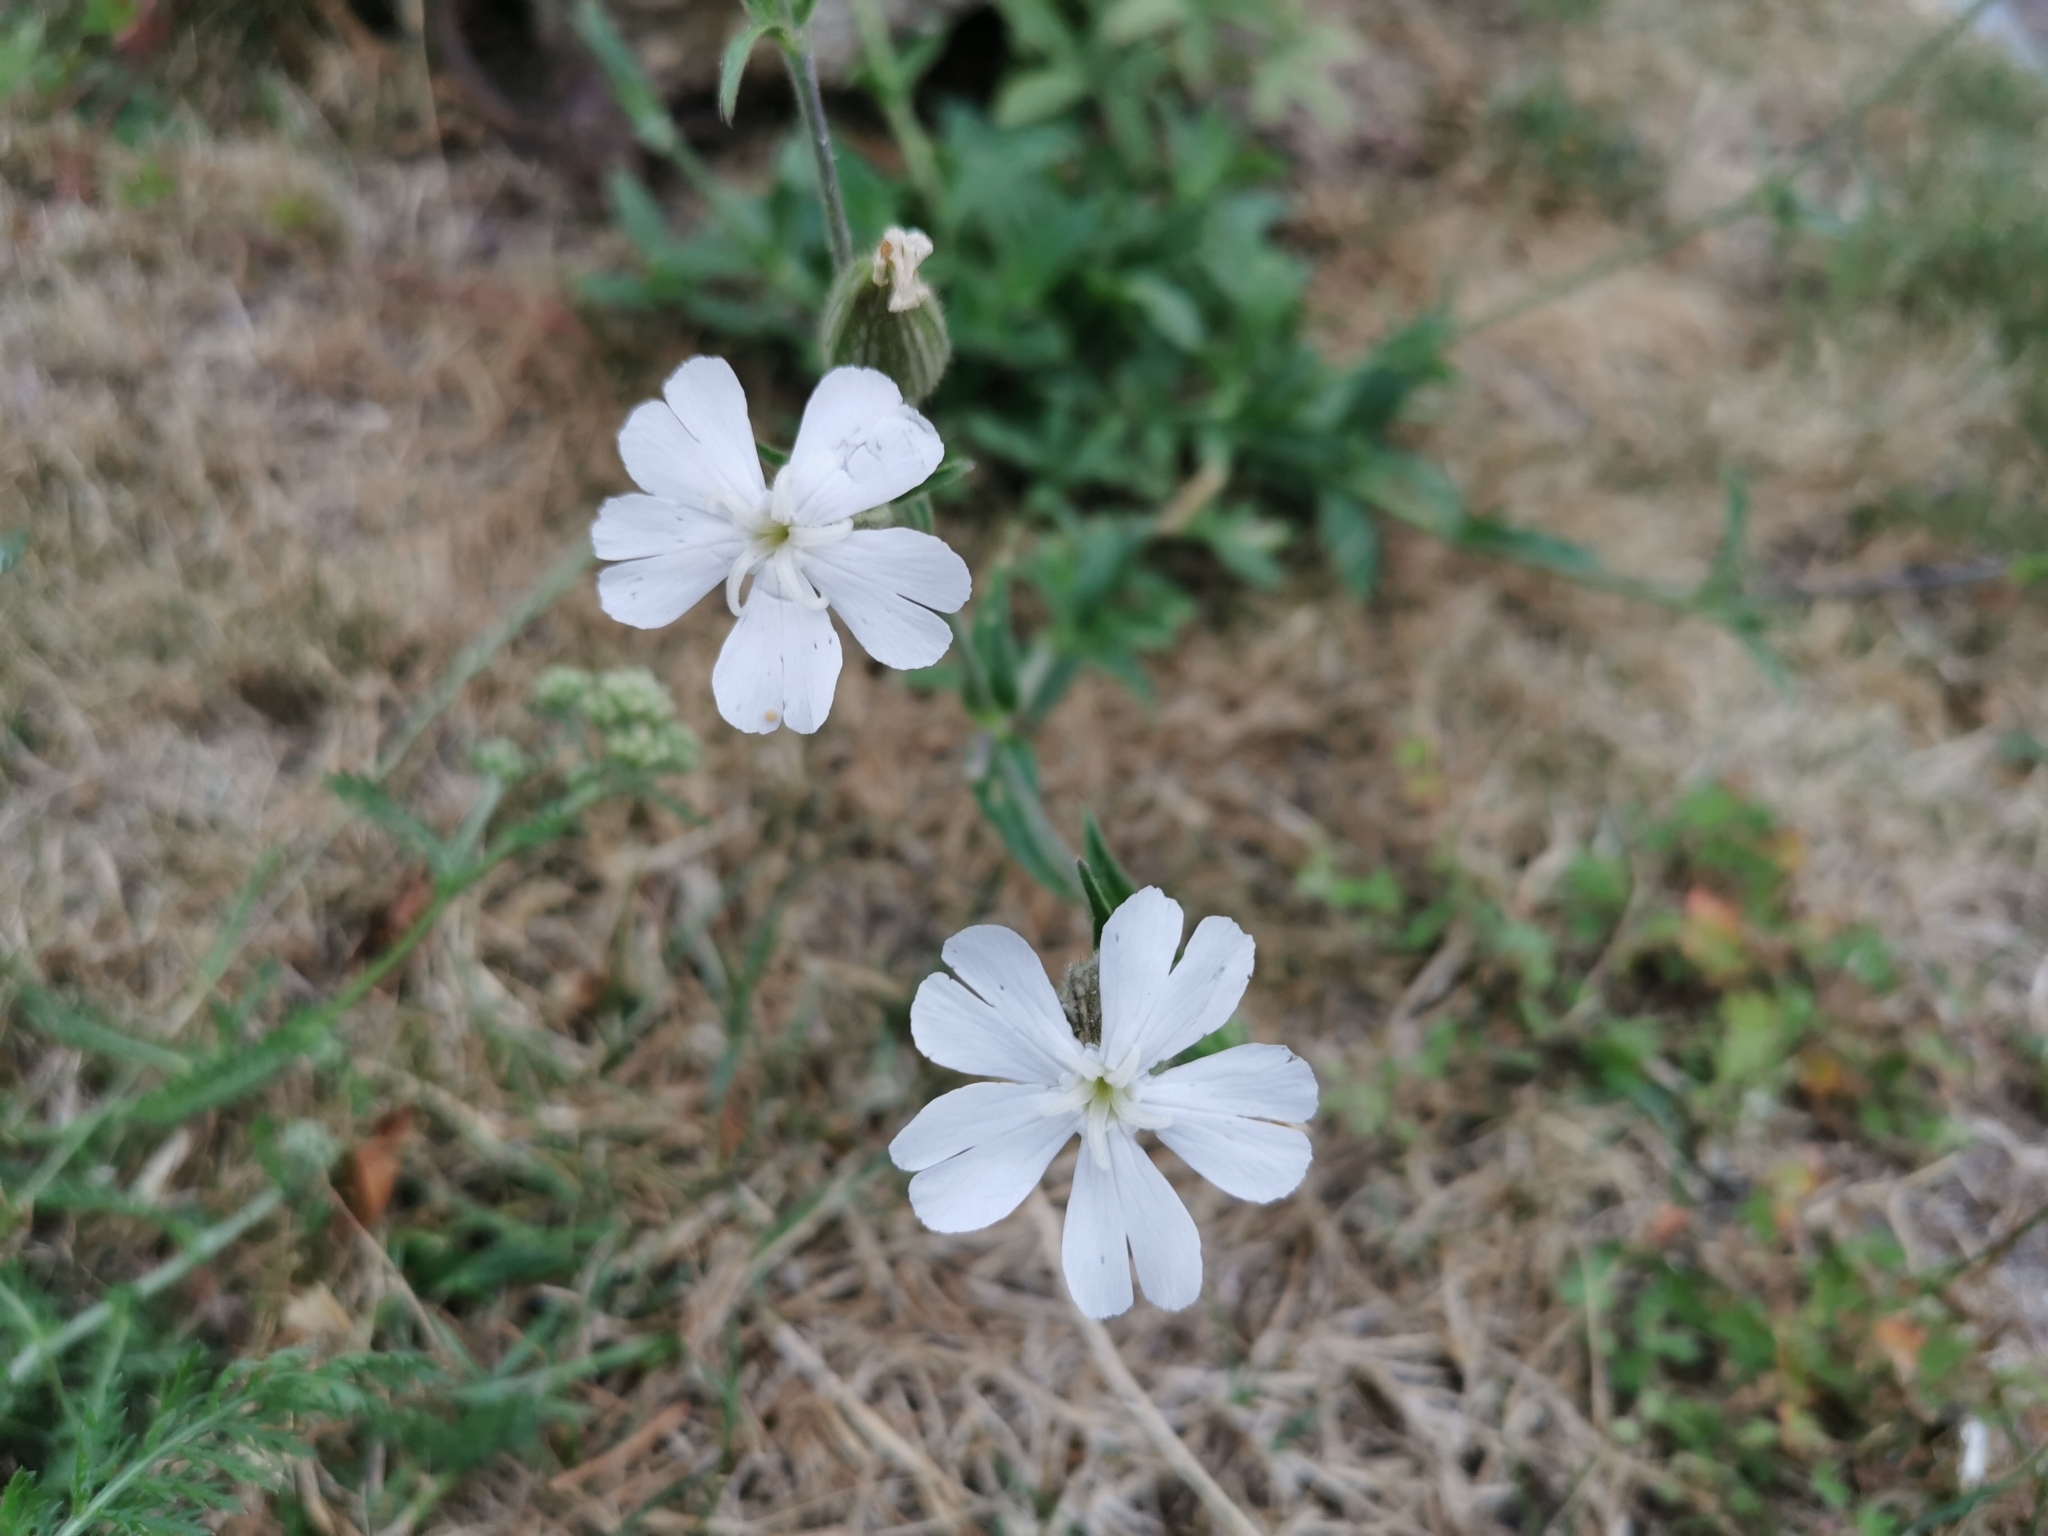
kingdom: Plantae
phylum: Tracheophyta
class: Magnoliopsida
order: Caryophyllales
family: Caryophyllaceae
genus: Silene
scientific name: Silene latifolia
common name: White campion
